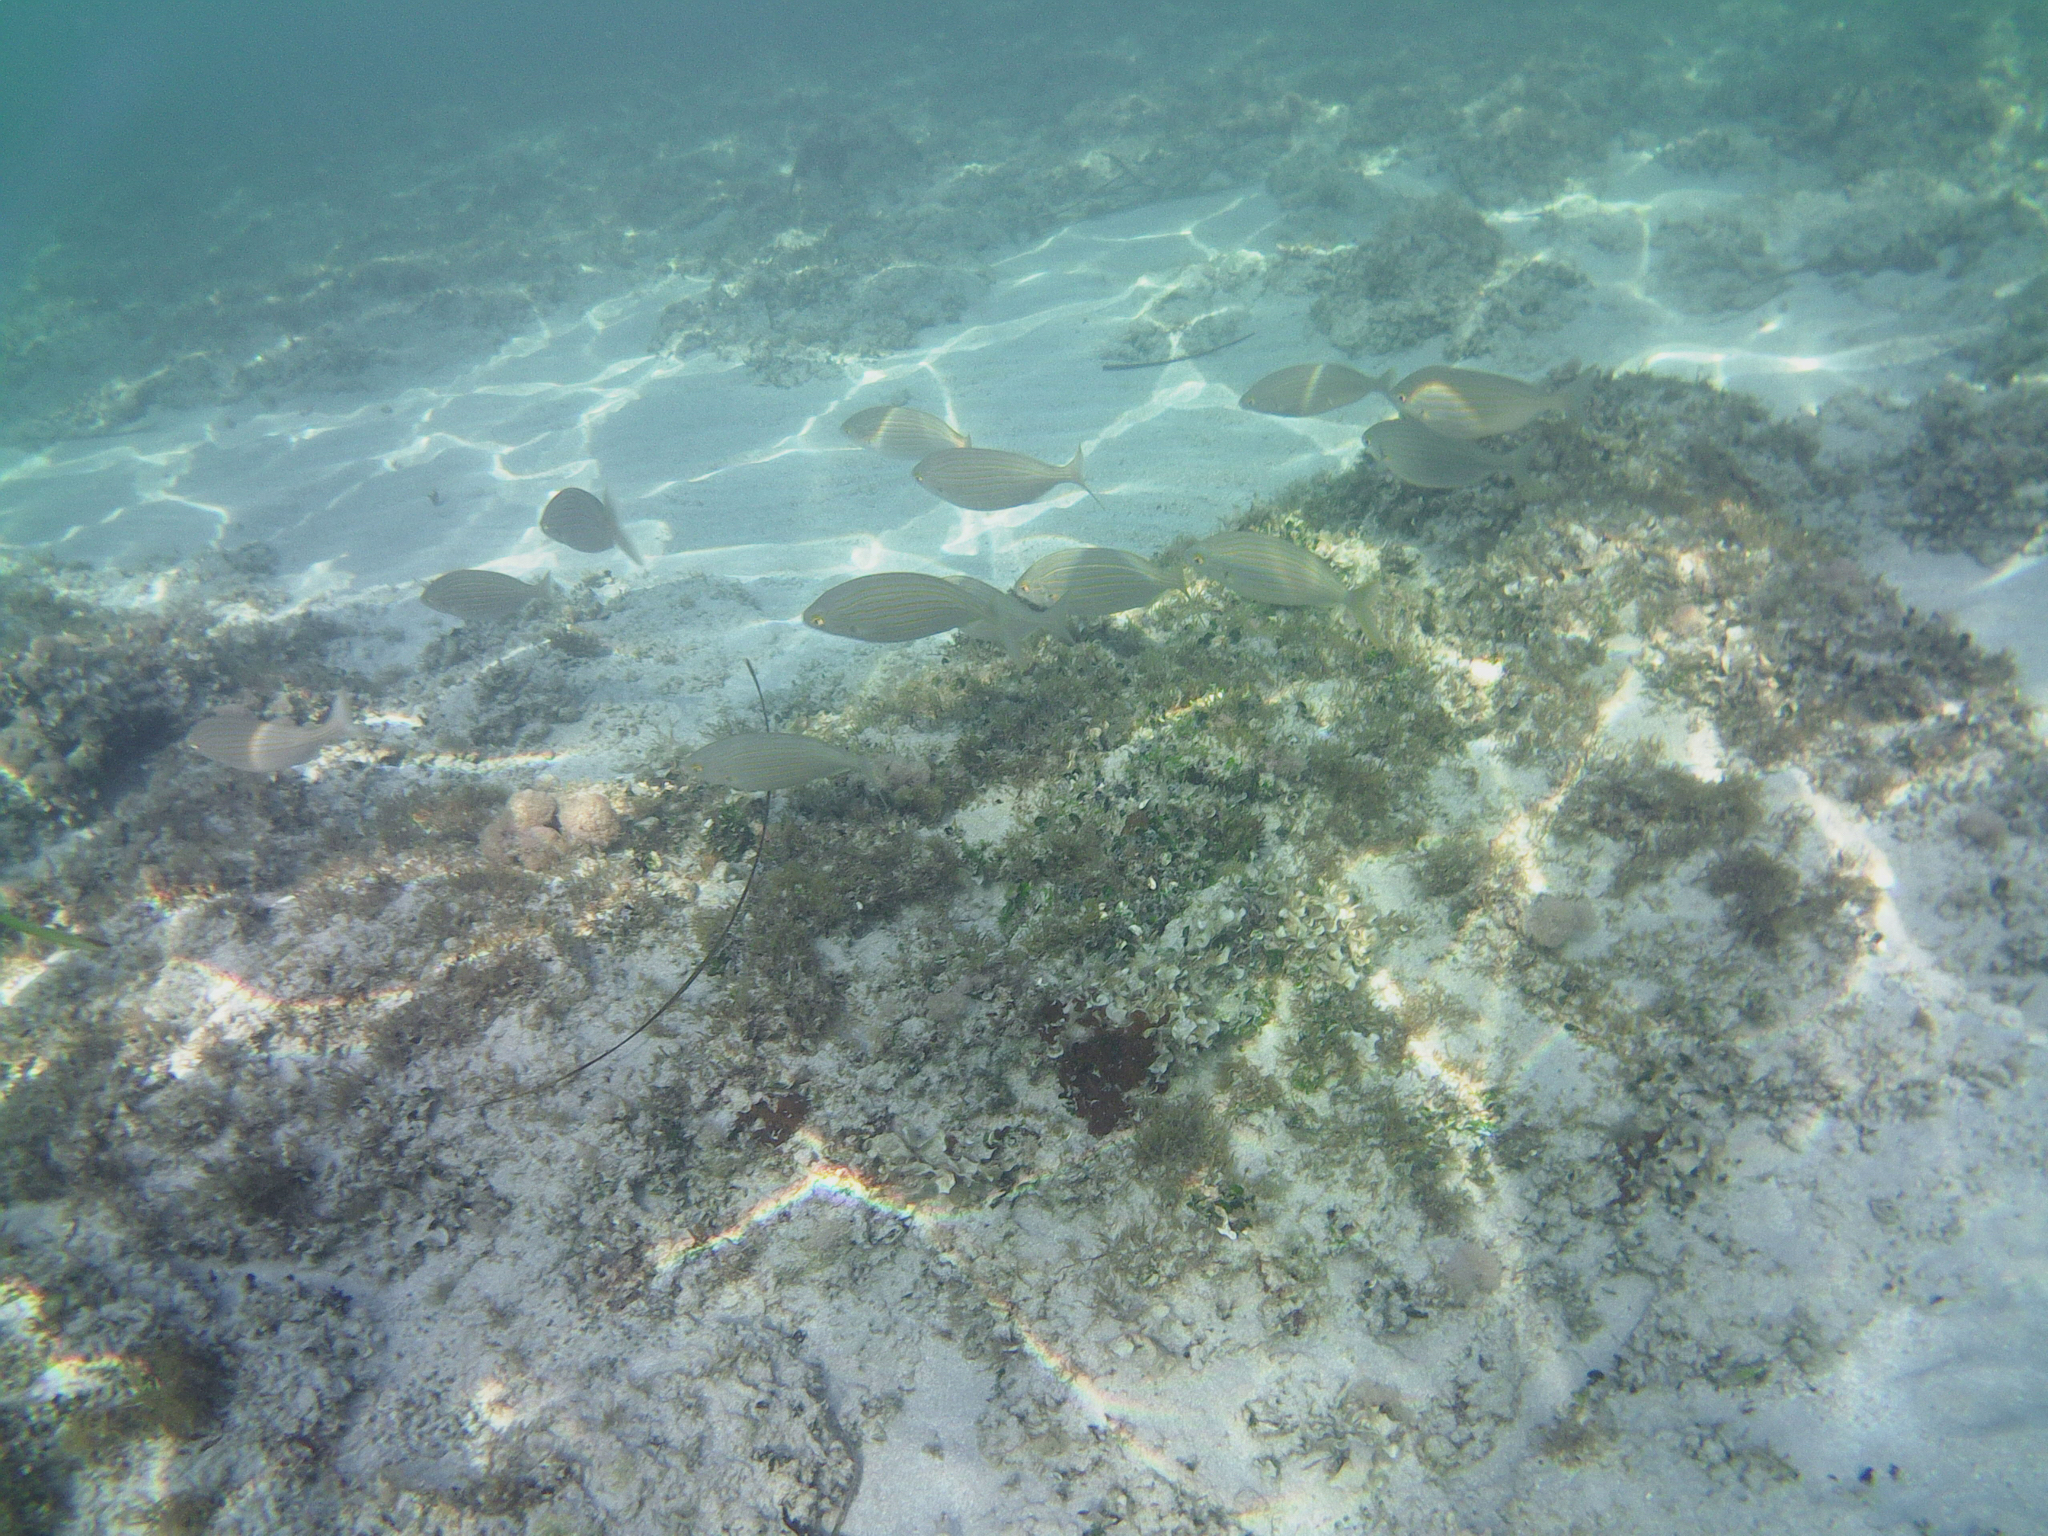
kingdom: Animalia
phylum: Chordata
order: Perciformes
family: Sparidae
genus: Sarpa
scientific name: Sarpa salpa
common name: Salema
